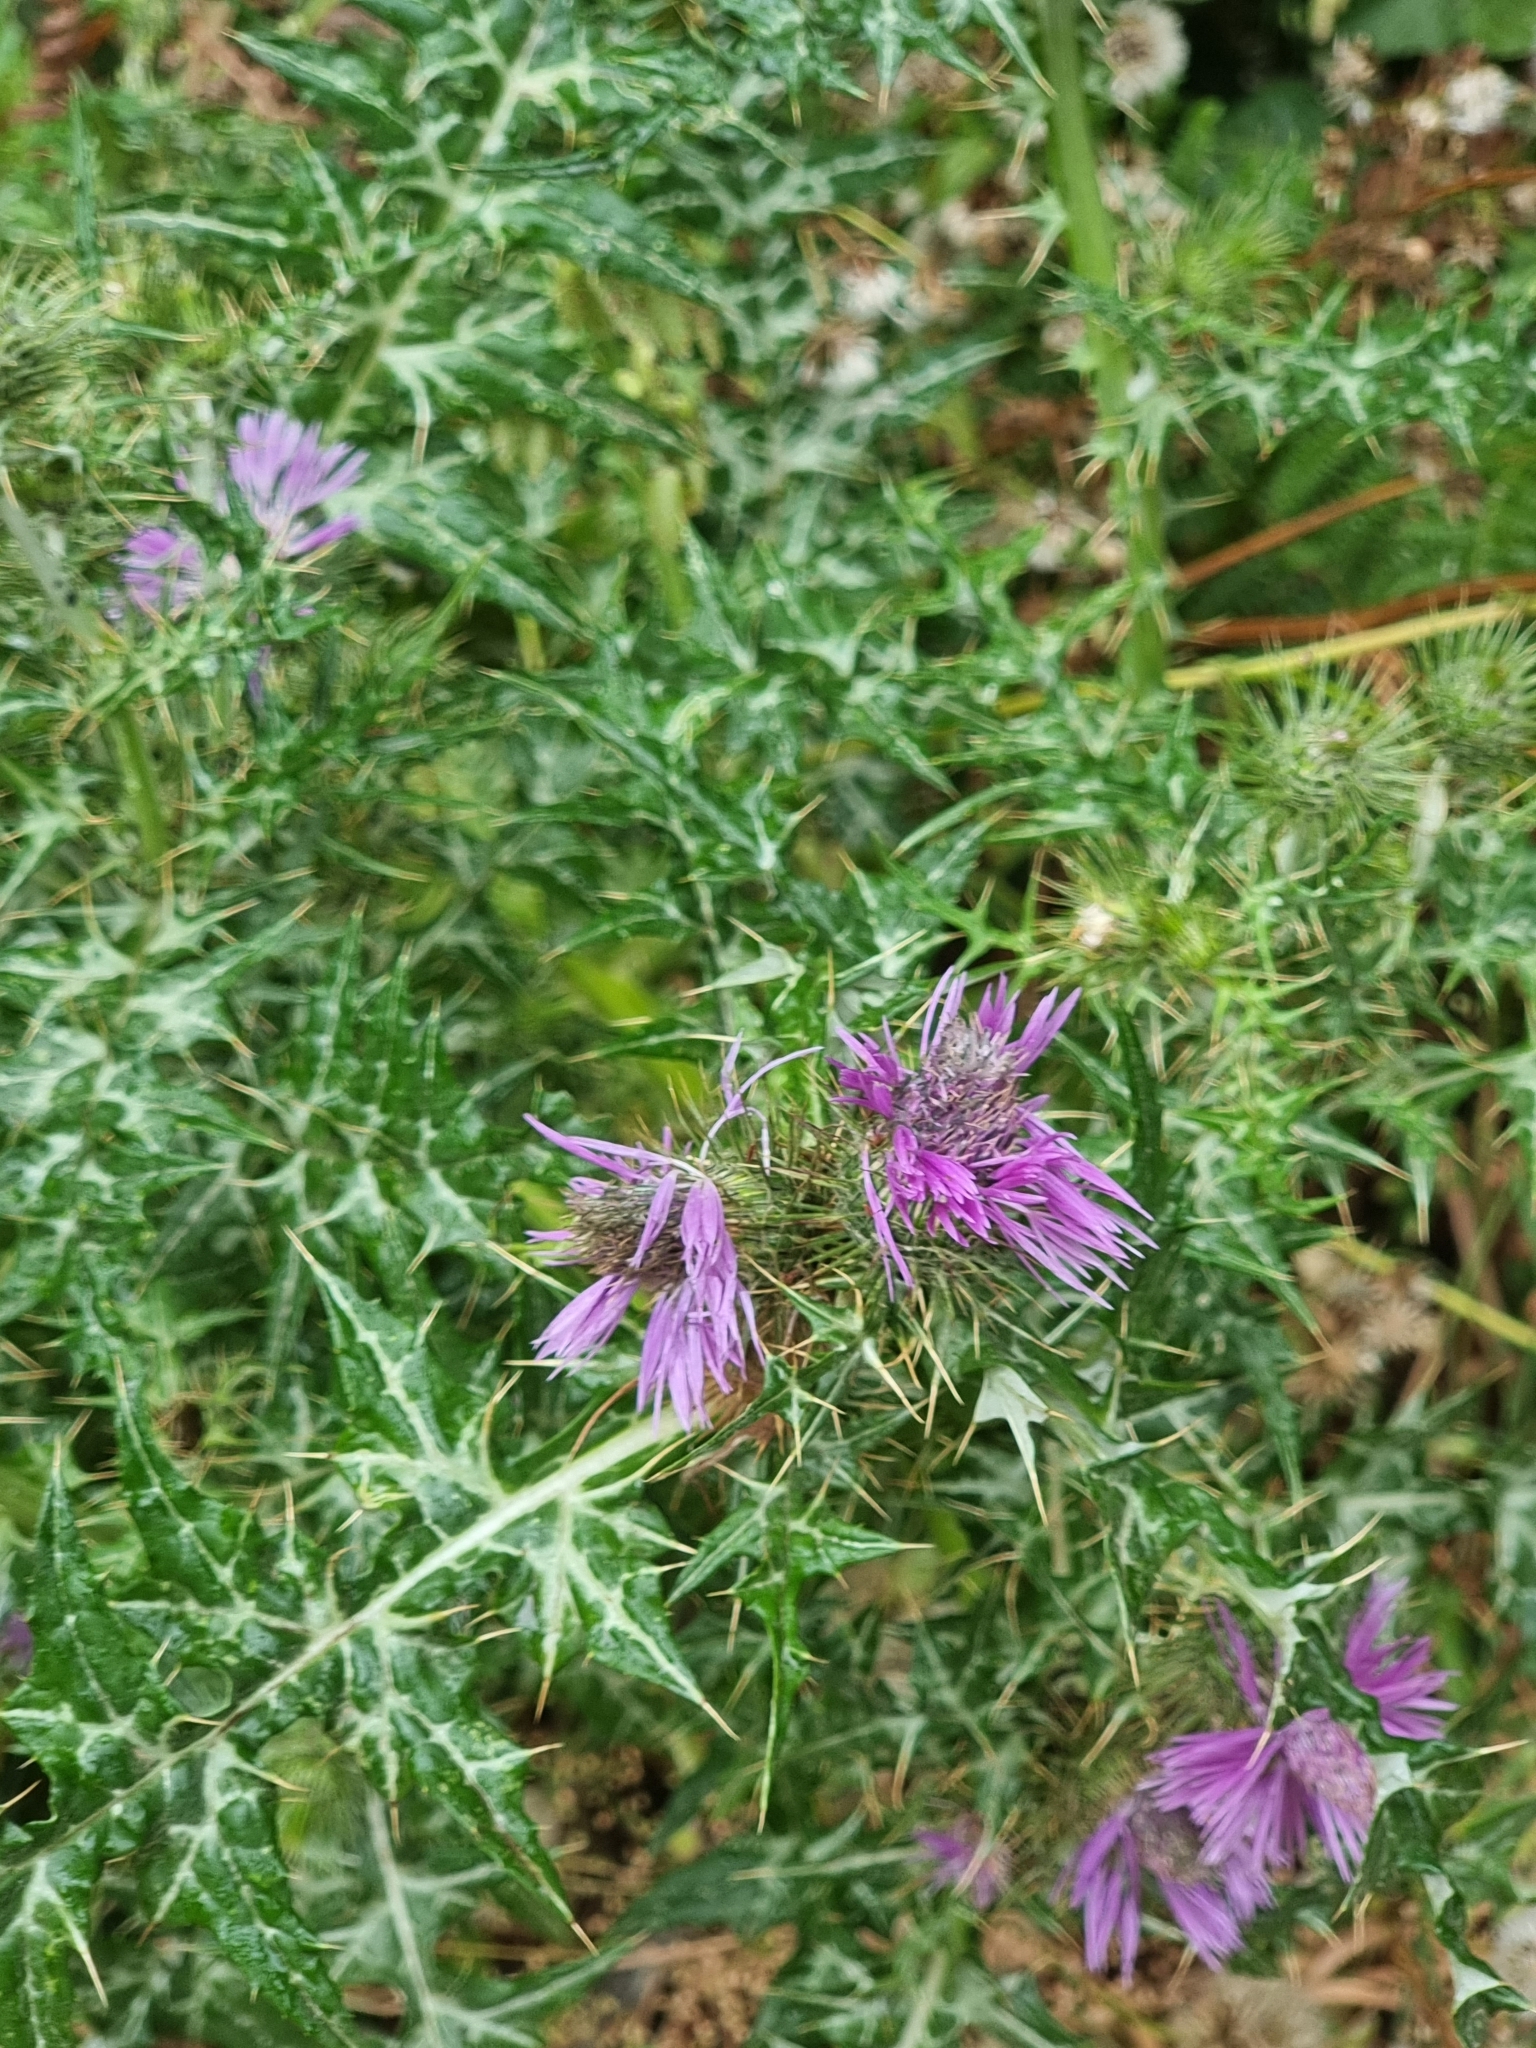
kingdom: Plantae
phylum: Tracheophyta
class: Magnoliopsida
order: Asterales
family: Asteraceae
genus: Galactites
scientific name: Galactites tomentosa
